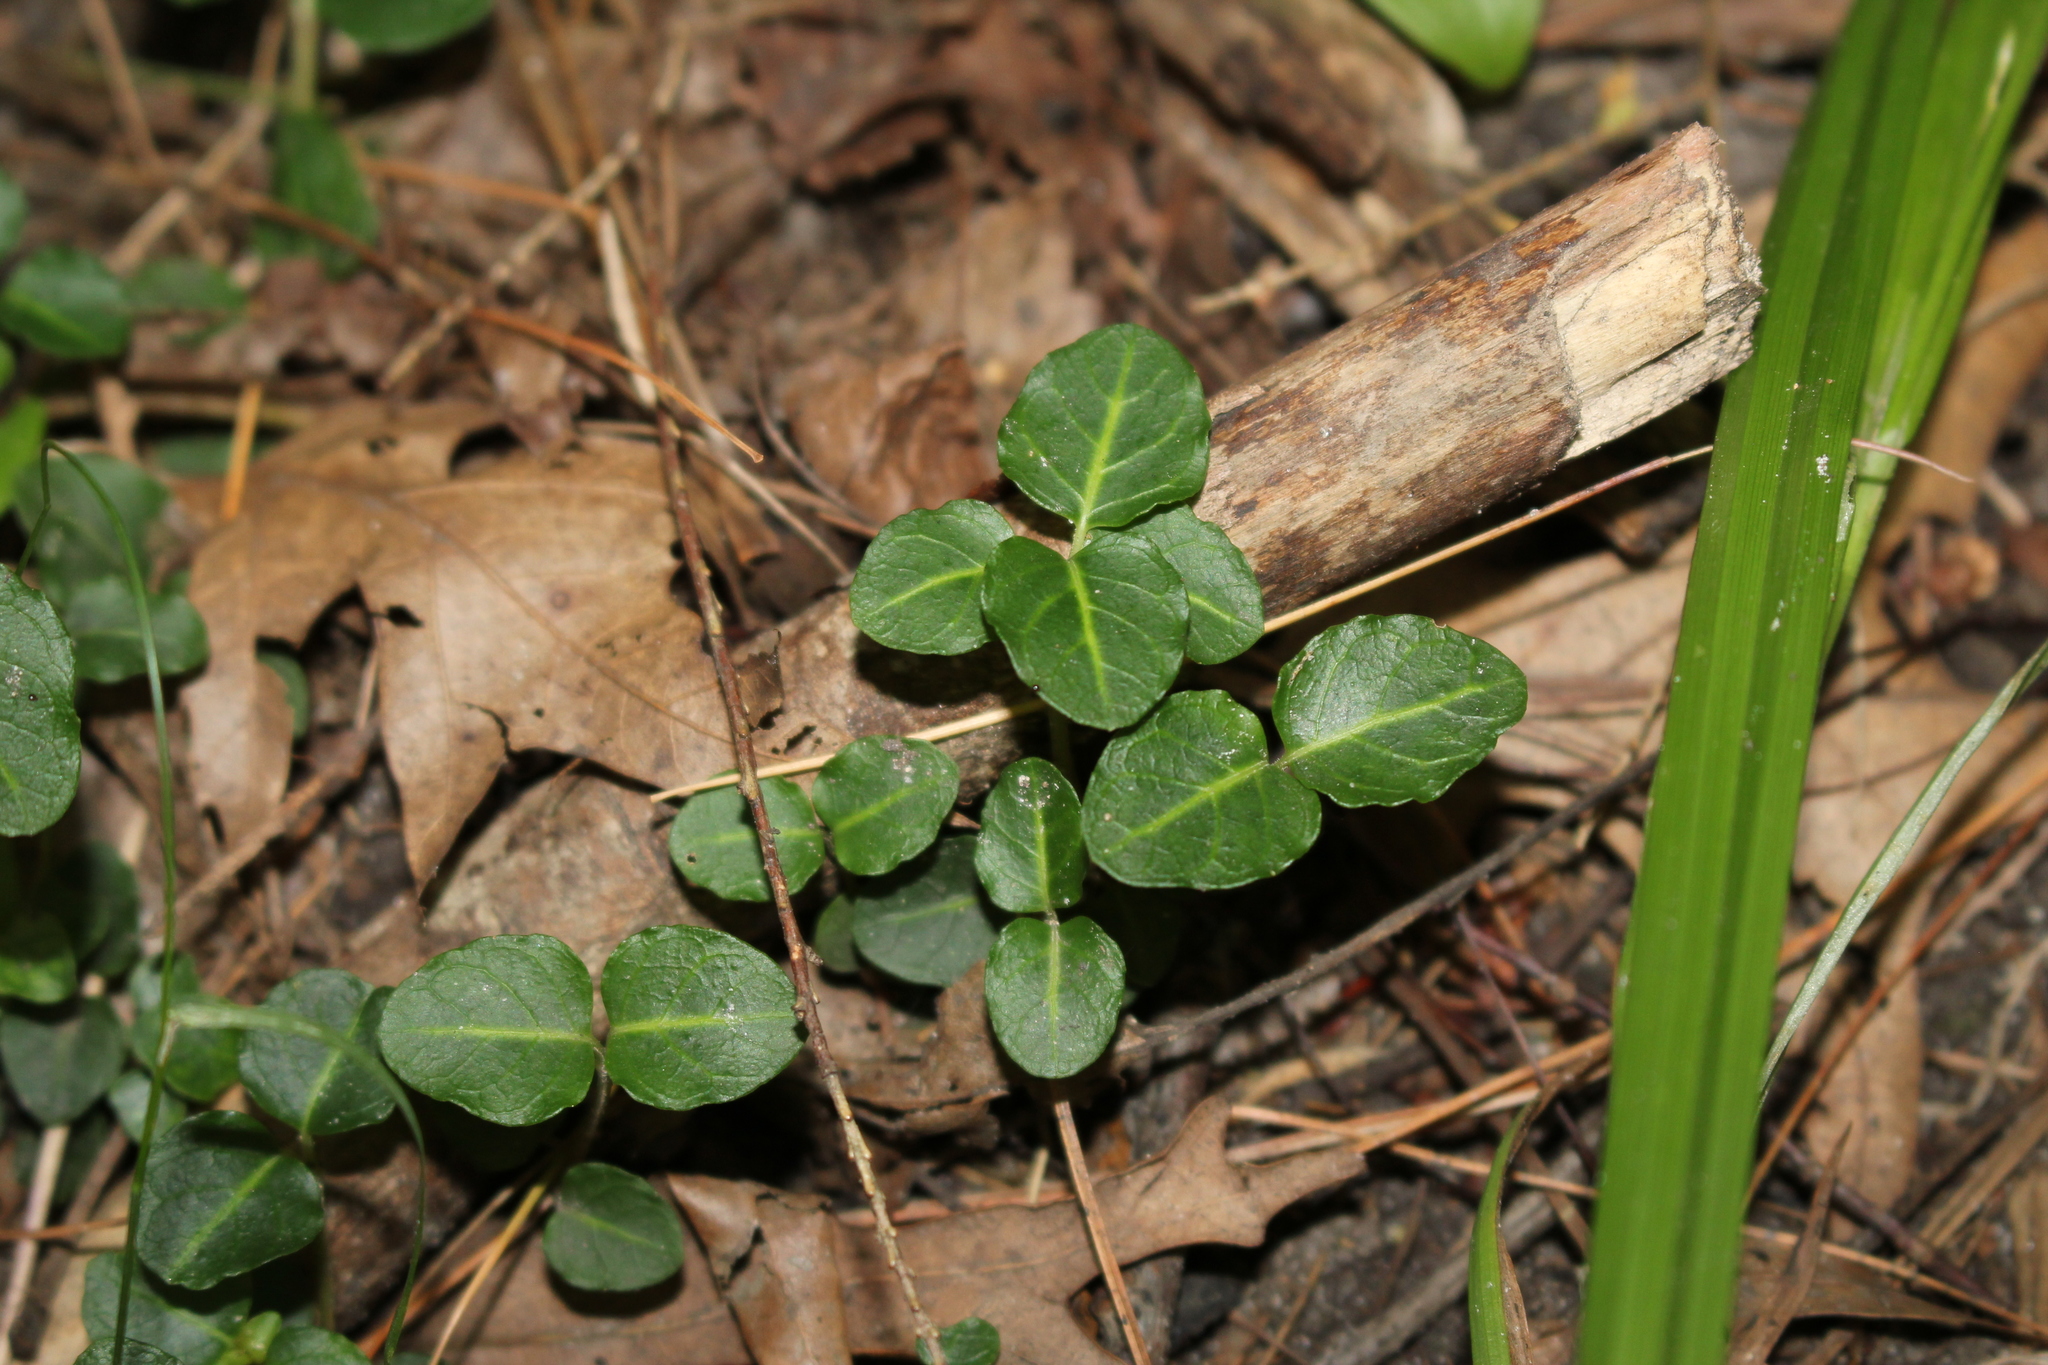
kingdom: Plantae
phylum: Tracheophyta
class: Magnoliopsida
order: Gentianales
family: Rubiaceae
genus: Mitchella
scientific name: Mitchella repens
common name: Partridge-berry
